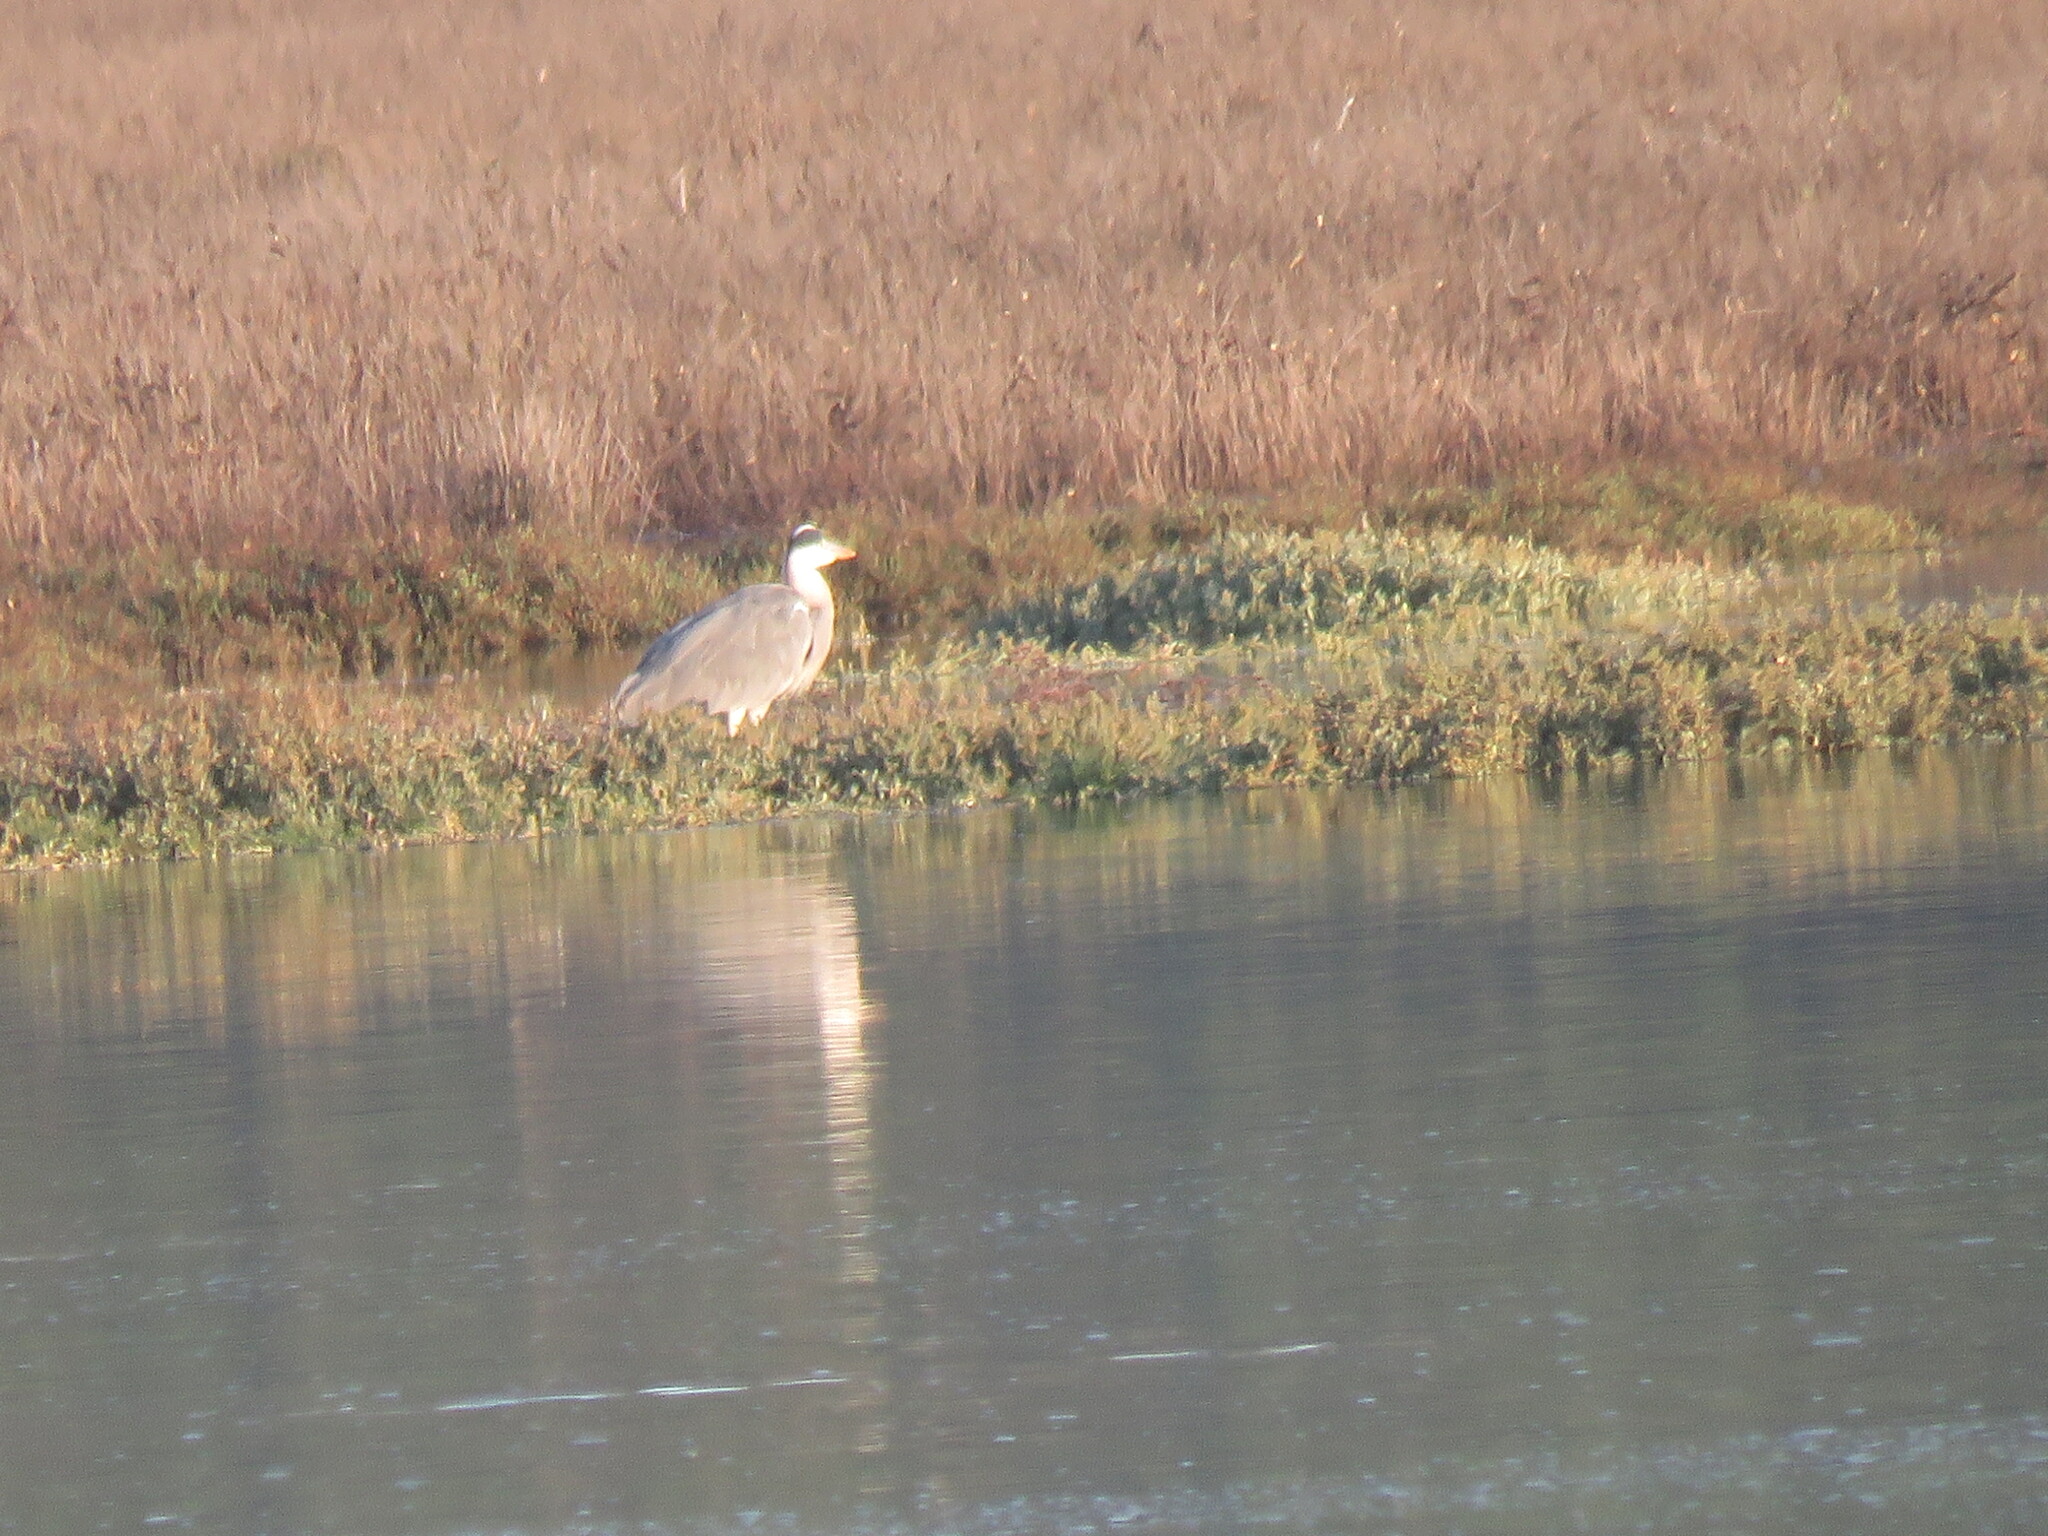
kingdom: Animalia
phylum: Chordata
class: Aves
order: Pelecaniformes
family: Ardeidae
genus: Ardea
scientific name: Ardea cinerea
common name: Grey heron
